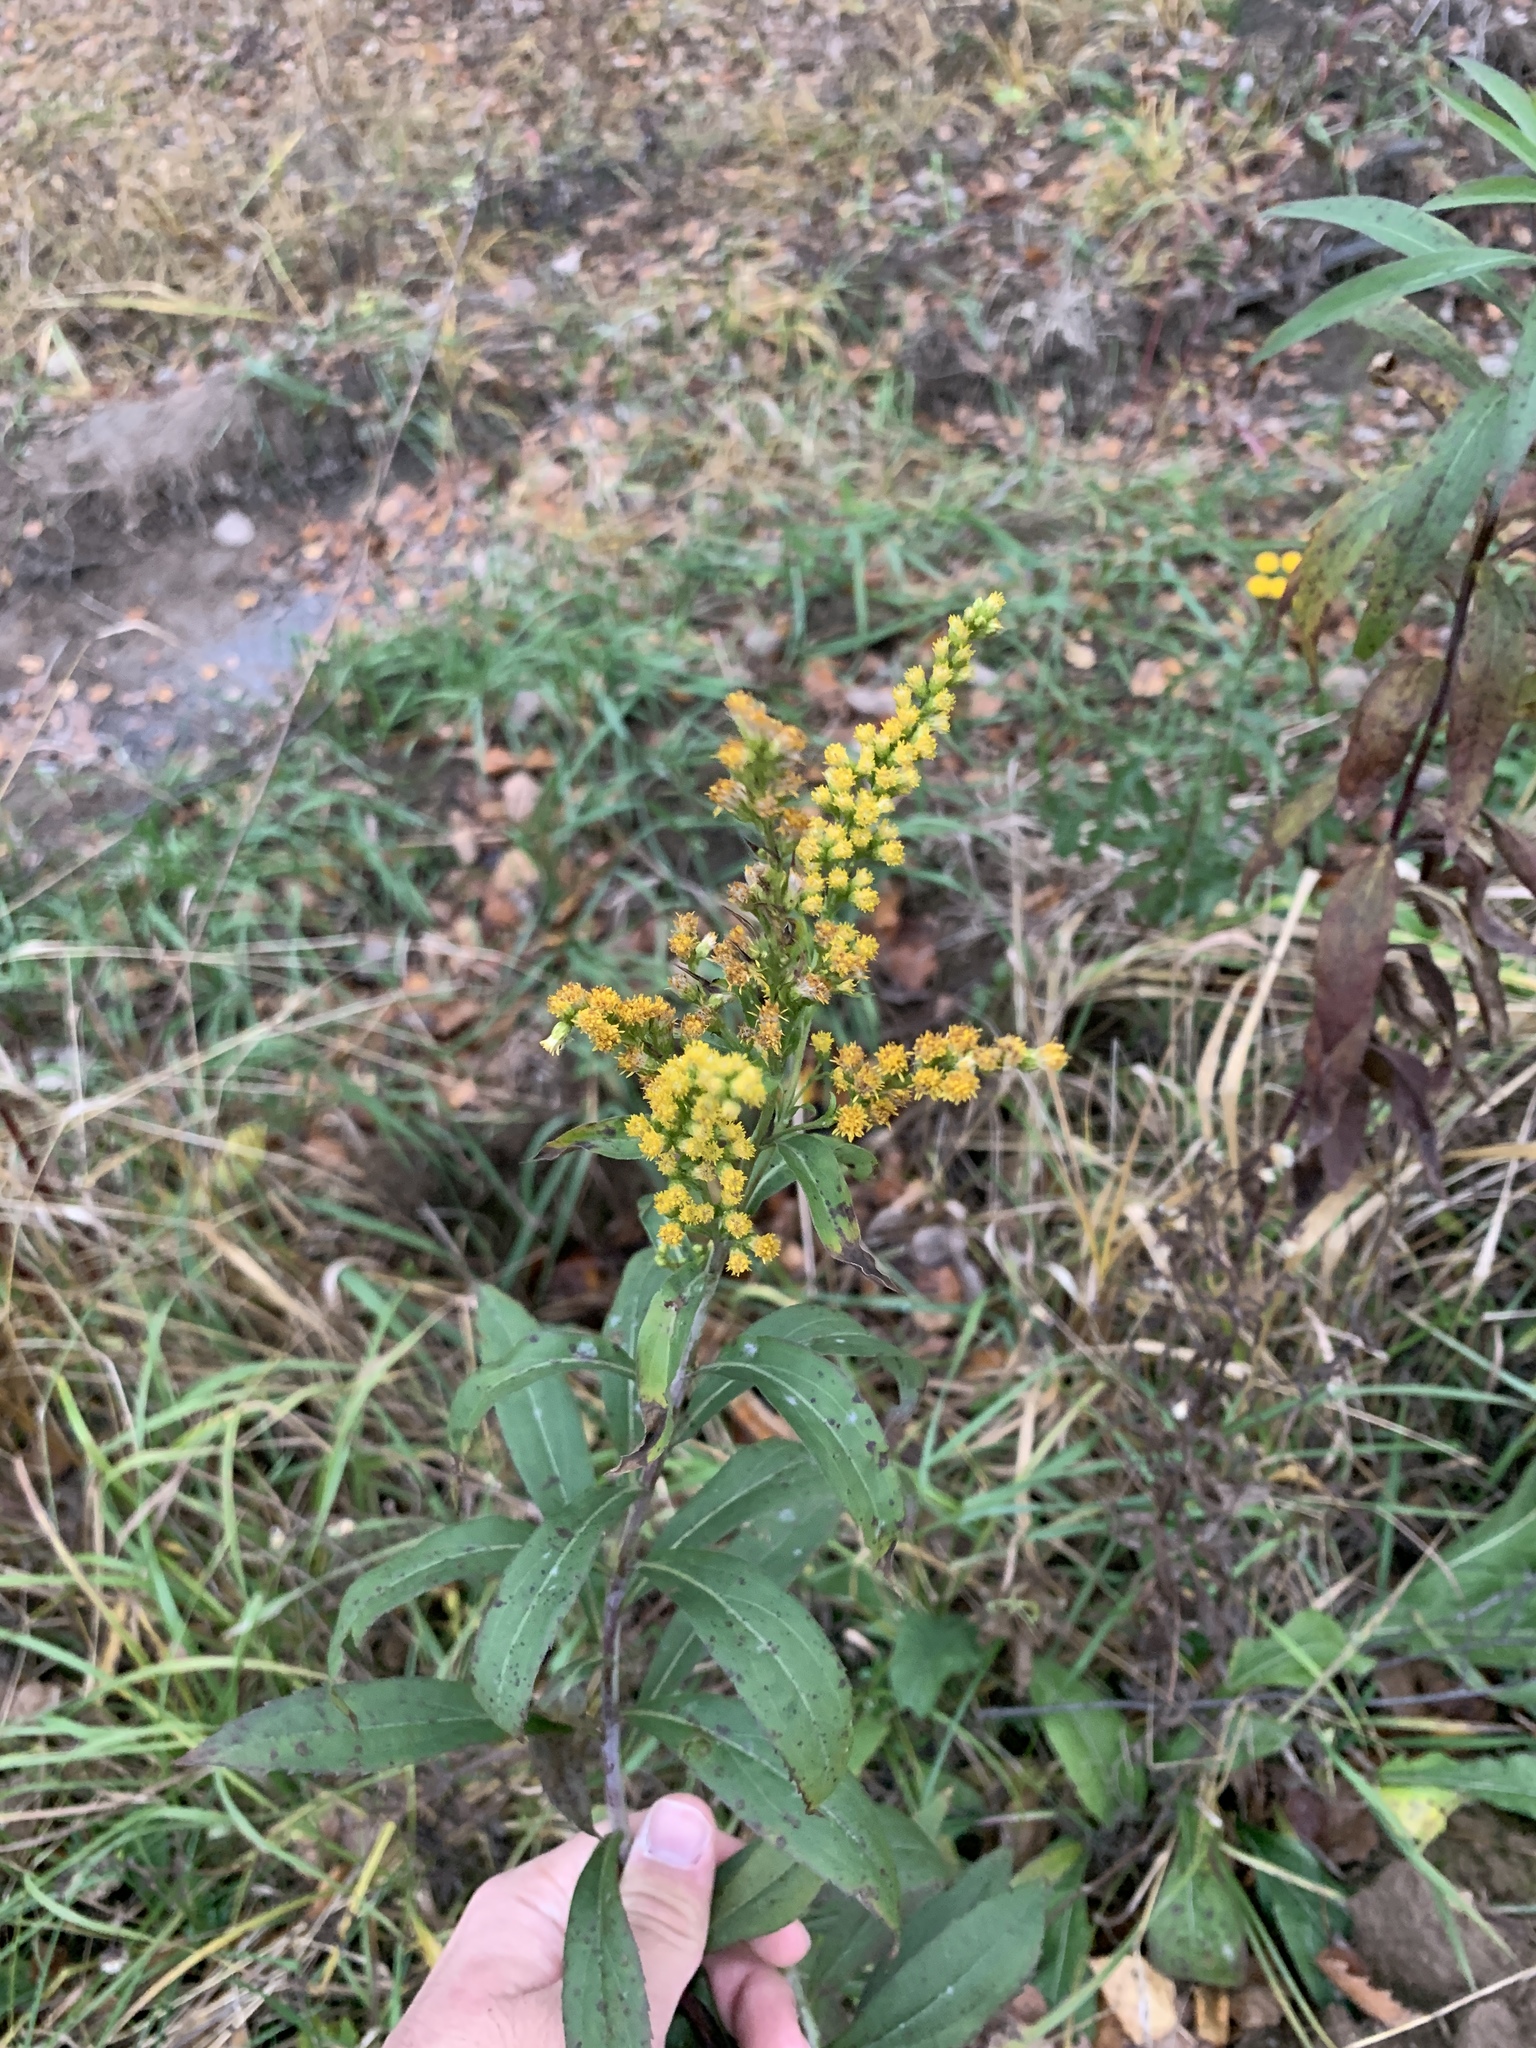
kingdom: Plantae
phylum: Tracheophyta
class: Magnoliopsida
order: Asterales
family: Asteraceae
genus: Solidago
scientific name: Solidago gigantea
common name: Giant goldenrod
